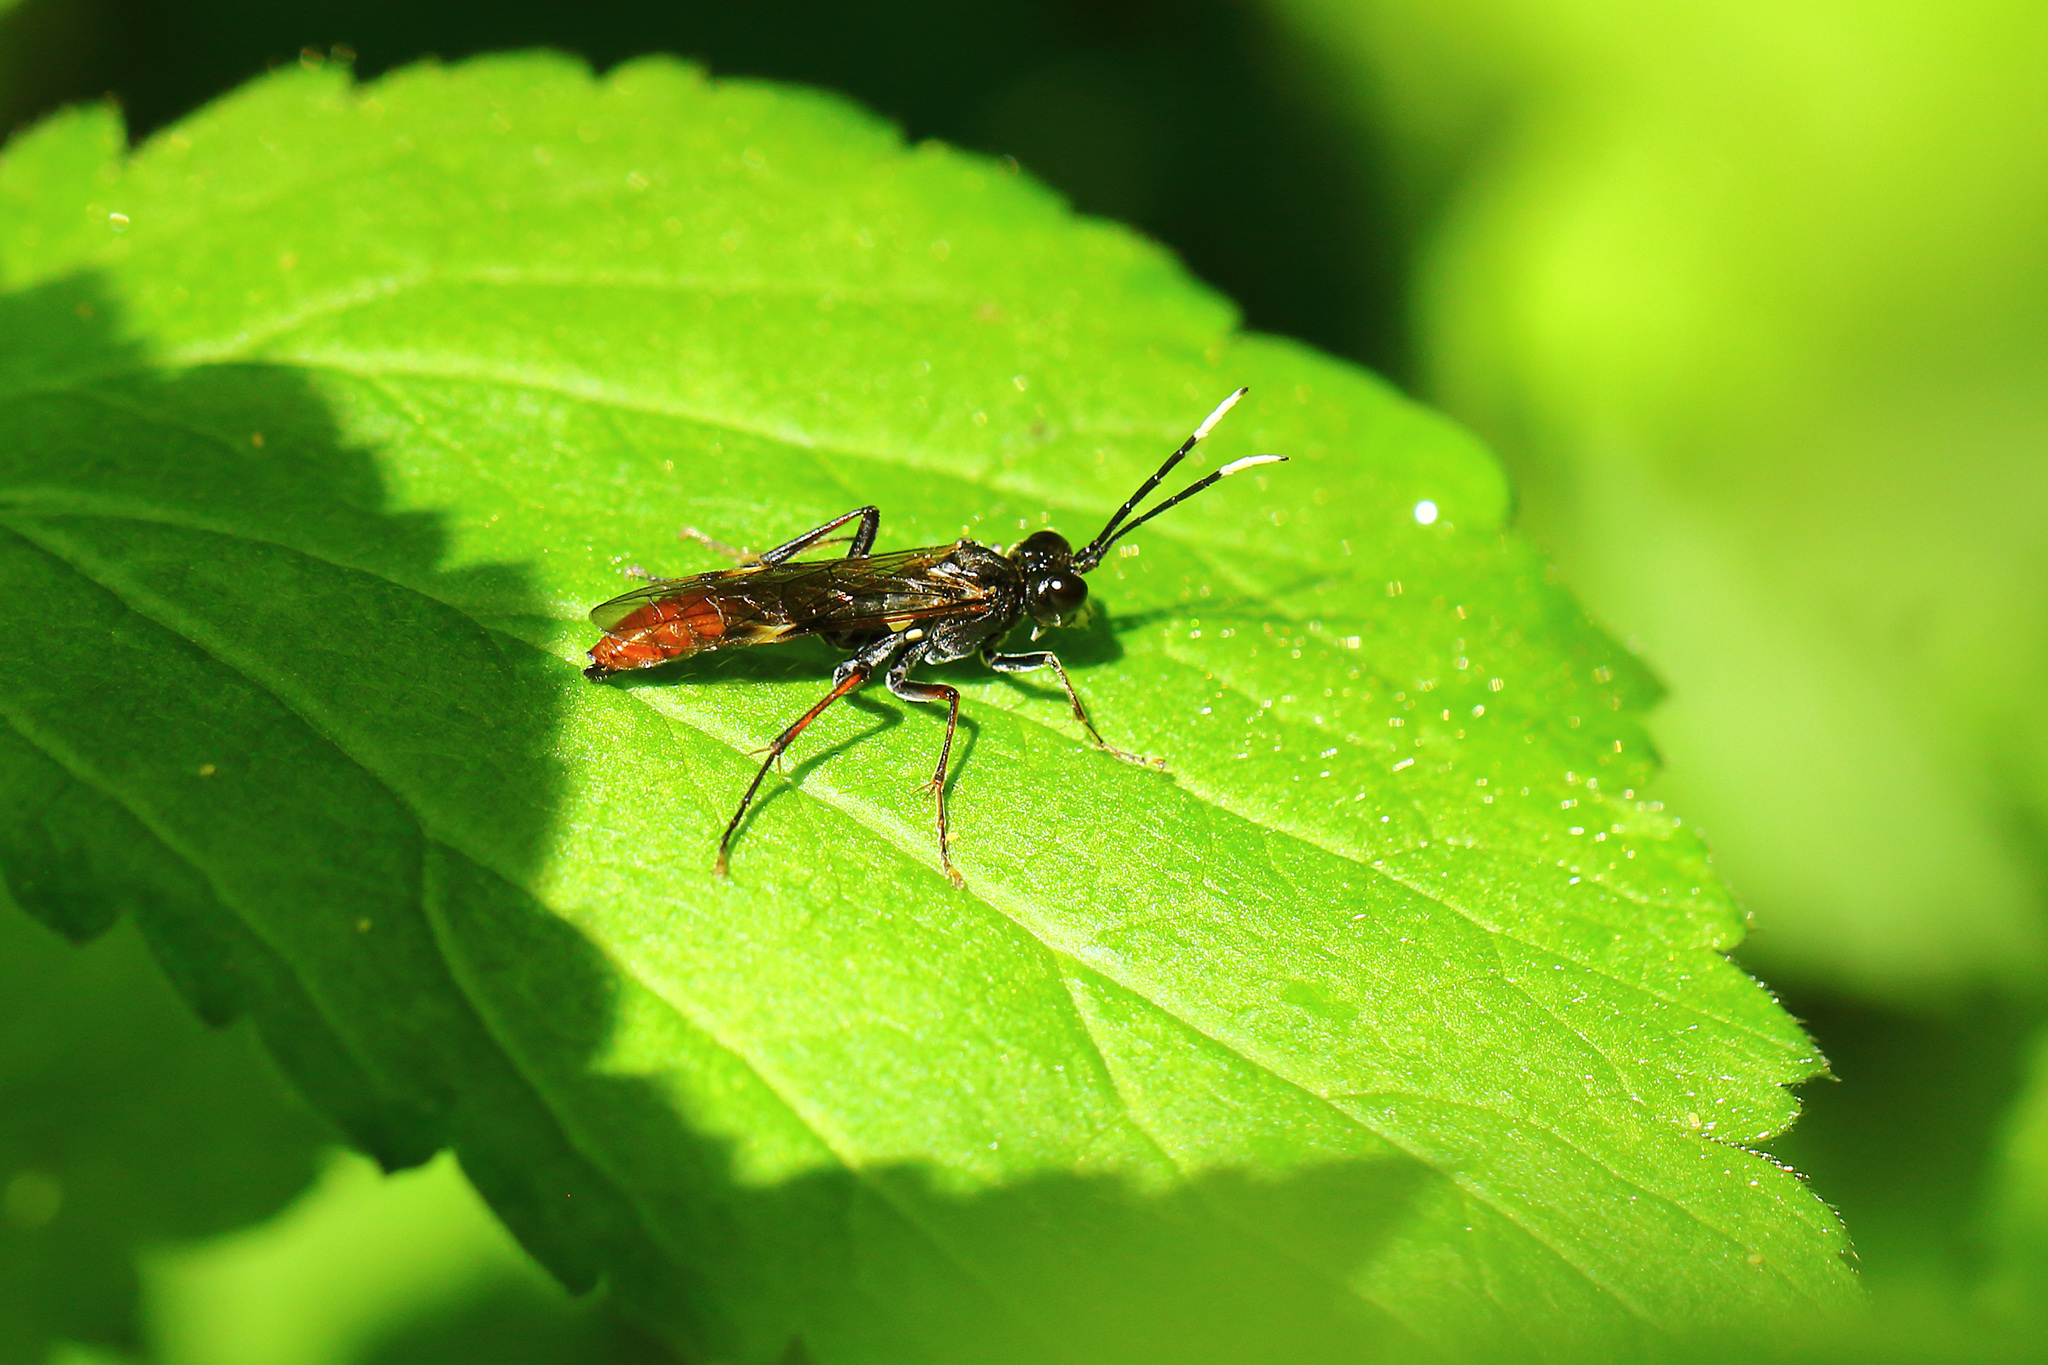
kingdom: Animalia
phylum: Arthropoda
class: Insecta
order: Hymenoptera
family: Tenthredinidae
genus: Tenthredo
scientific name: Tenthredo livida
